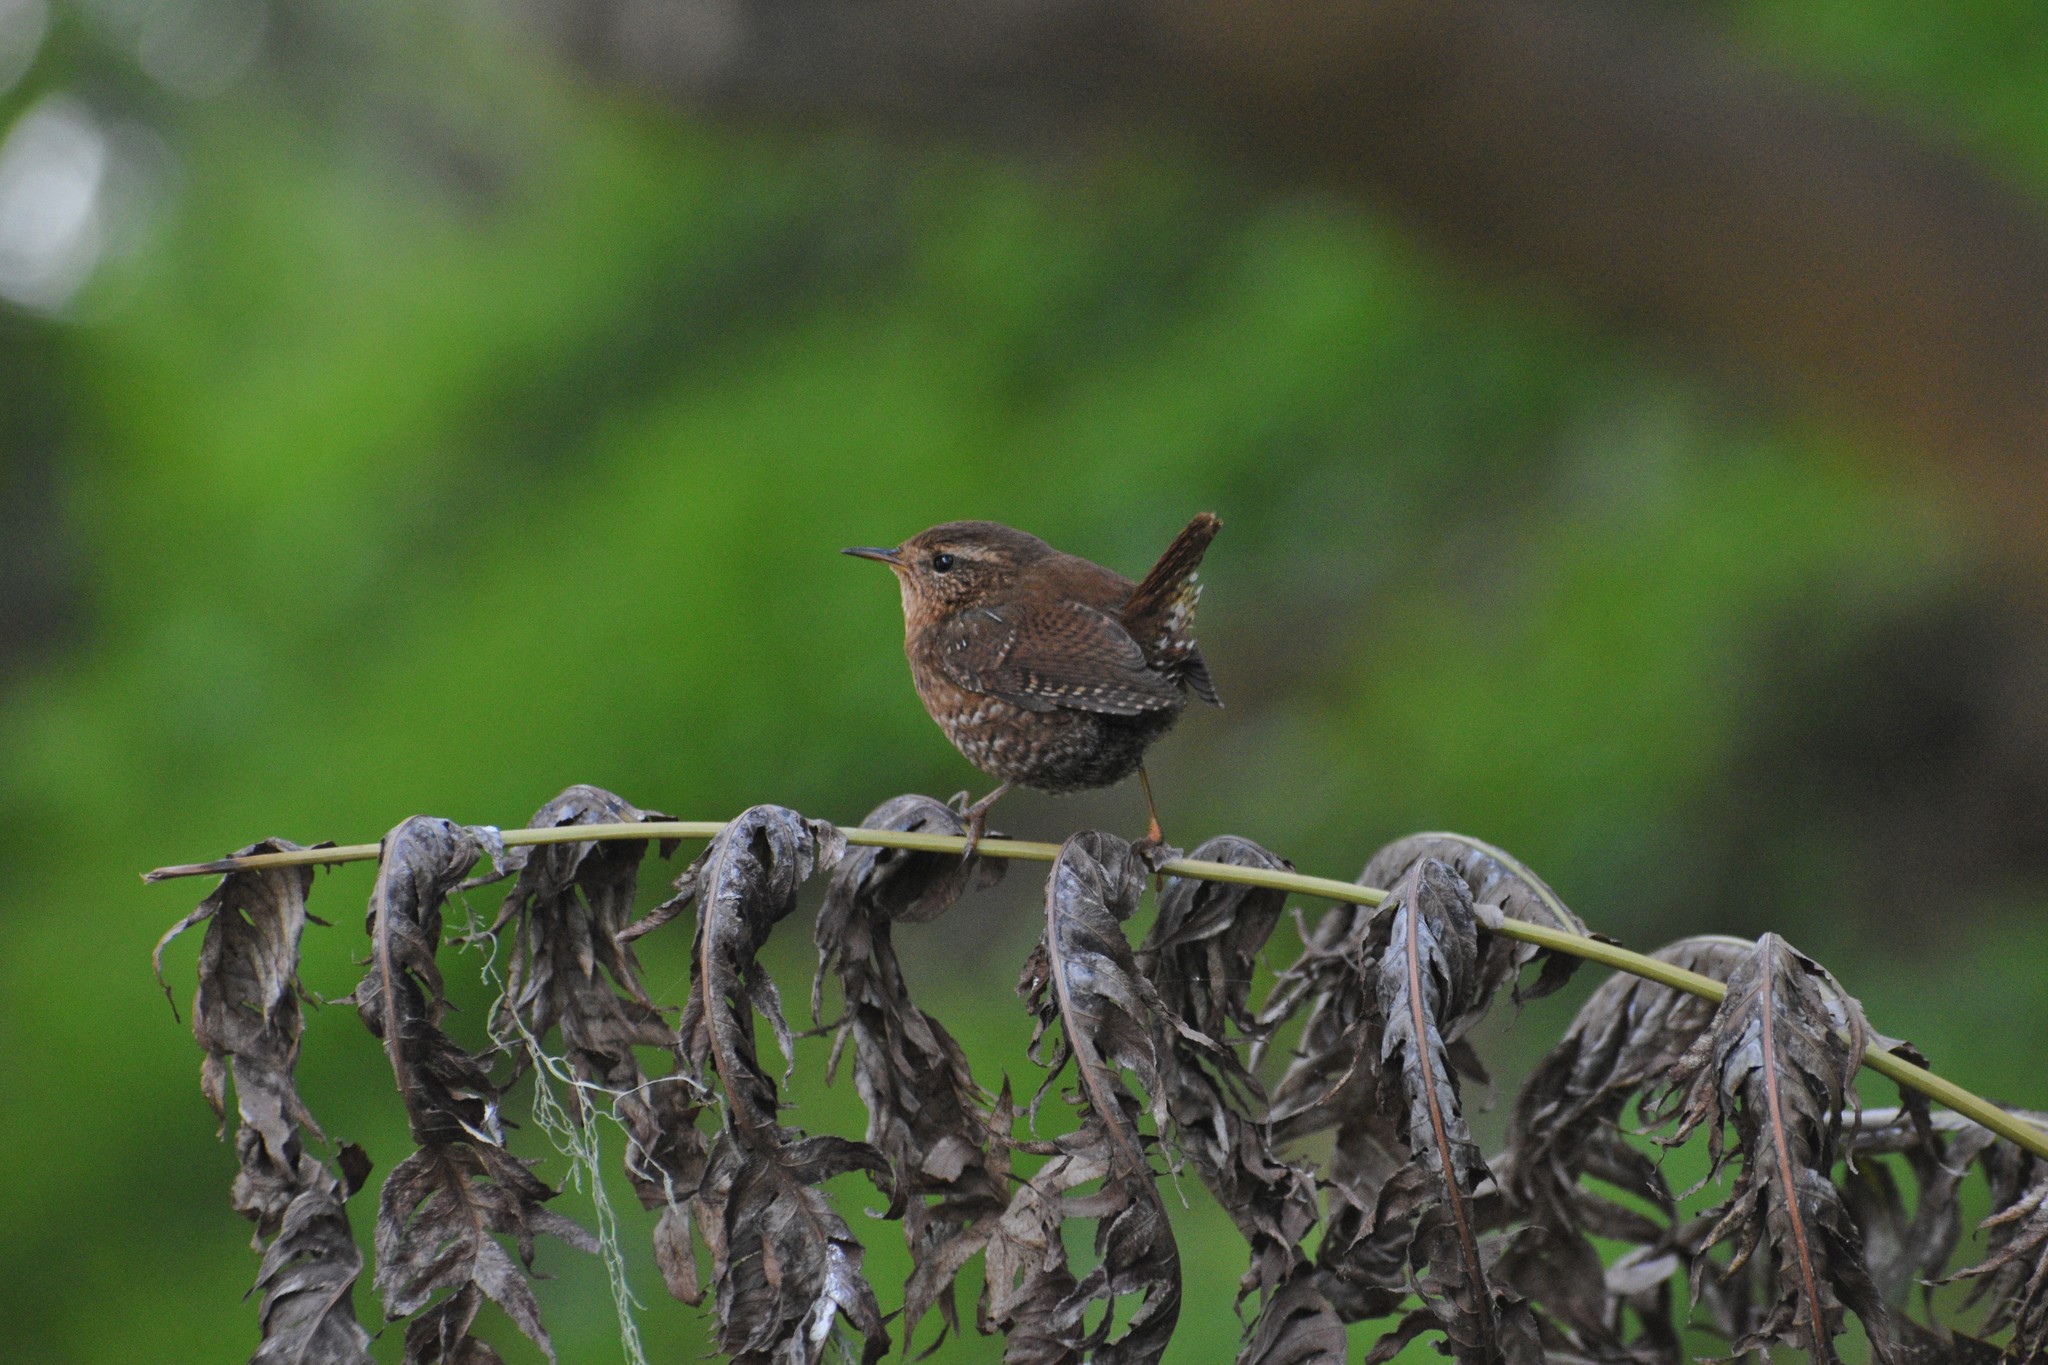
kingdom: Animalia
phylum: Chordata
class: Aves
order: Passeriformes
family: Troglodytidae
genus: Troglodytes
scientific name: Troglodytes pacificus
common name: Pacific wren
